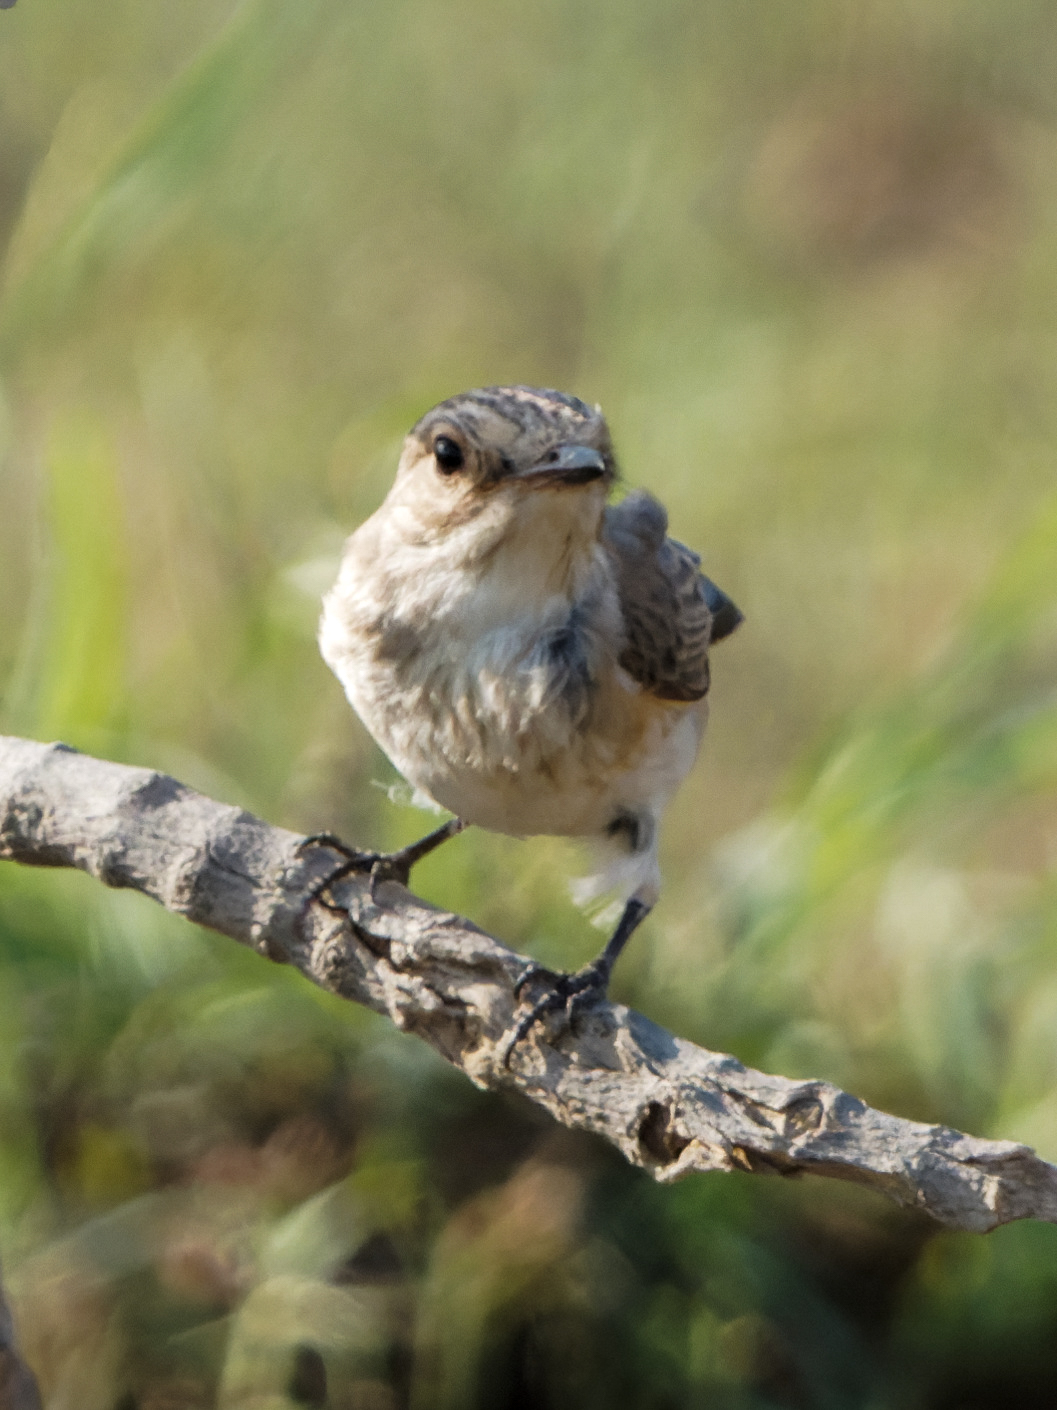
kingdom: Animalia
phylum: Chordata
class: Aves
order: Passeriformes
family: Muscicapidae
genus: Muscicapa
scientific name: Muscicapa striata
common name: Spotted flycatcher
